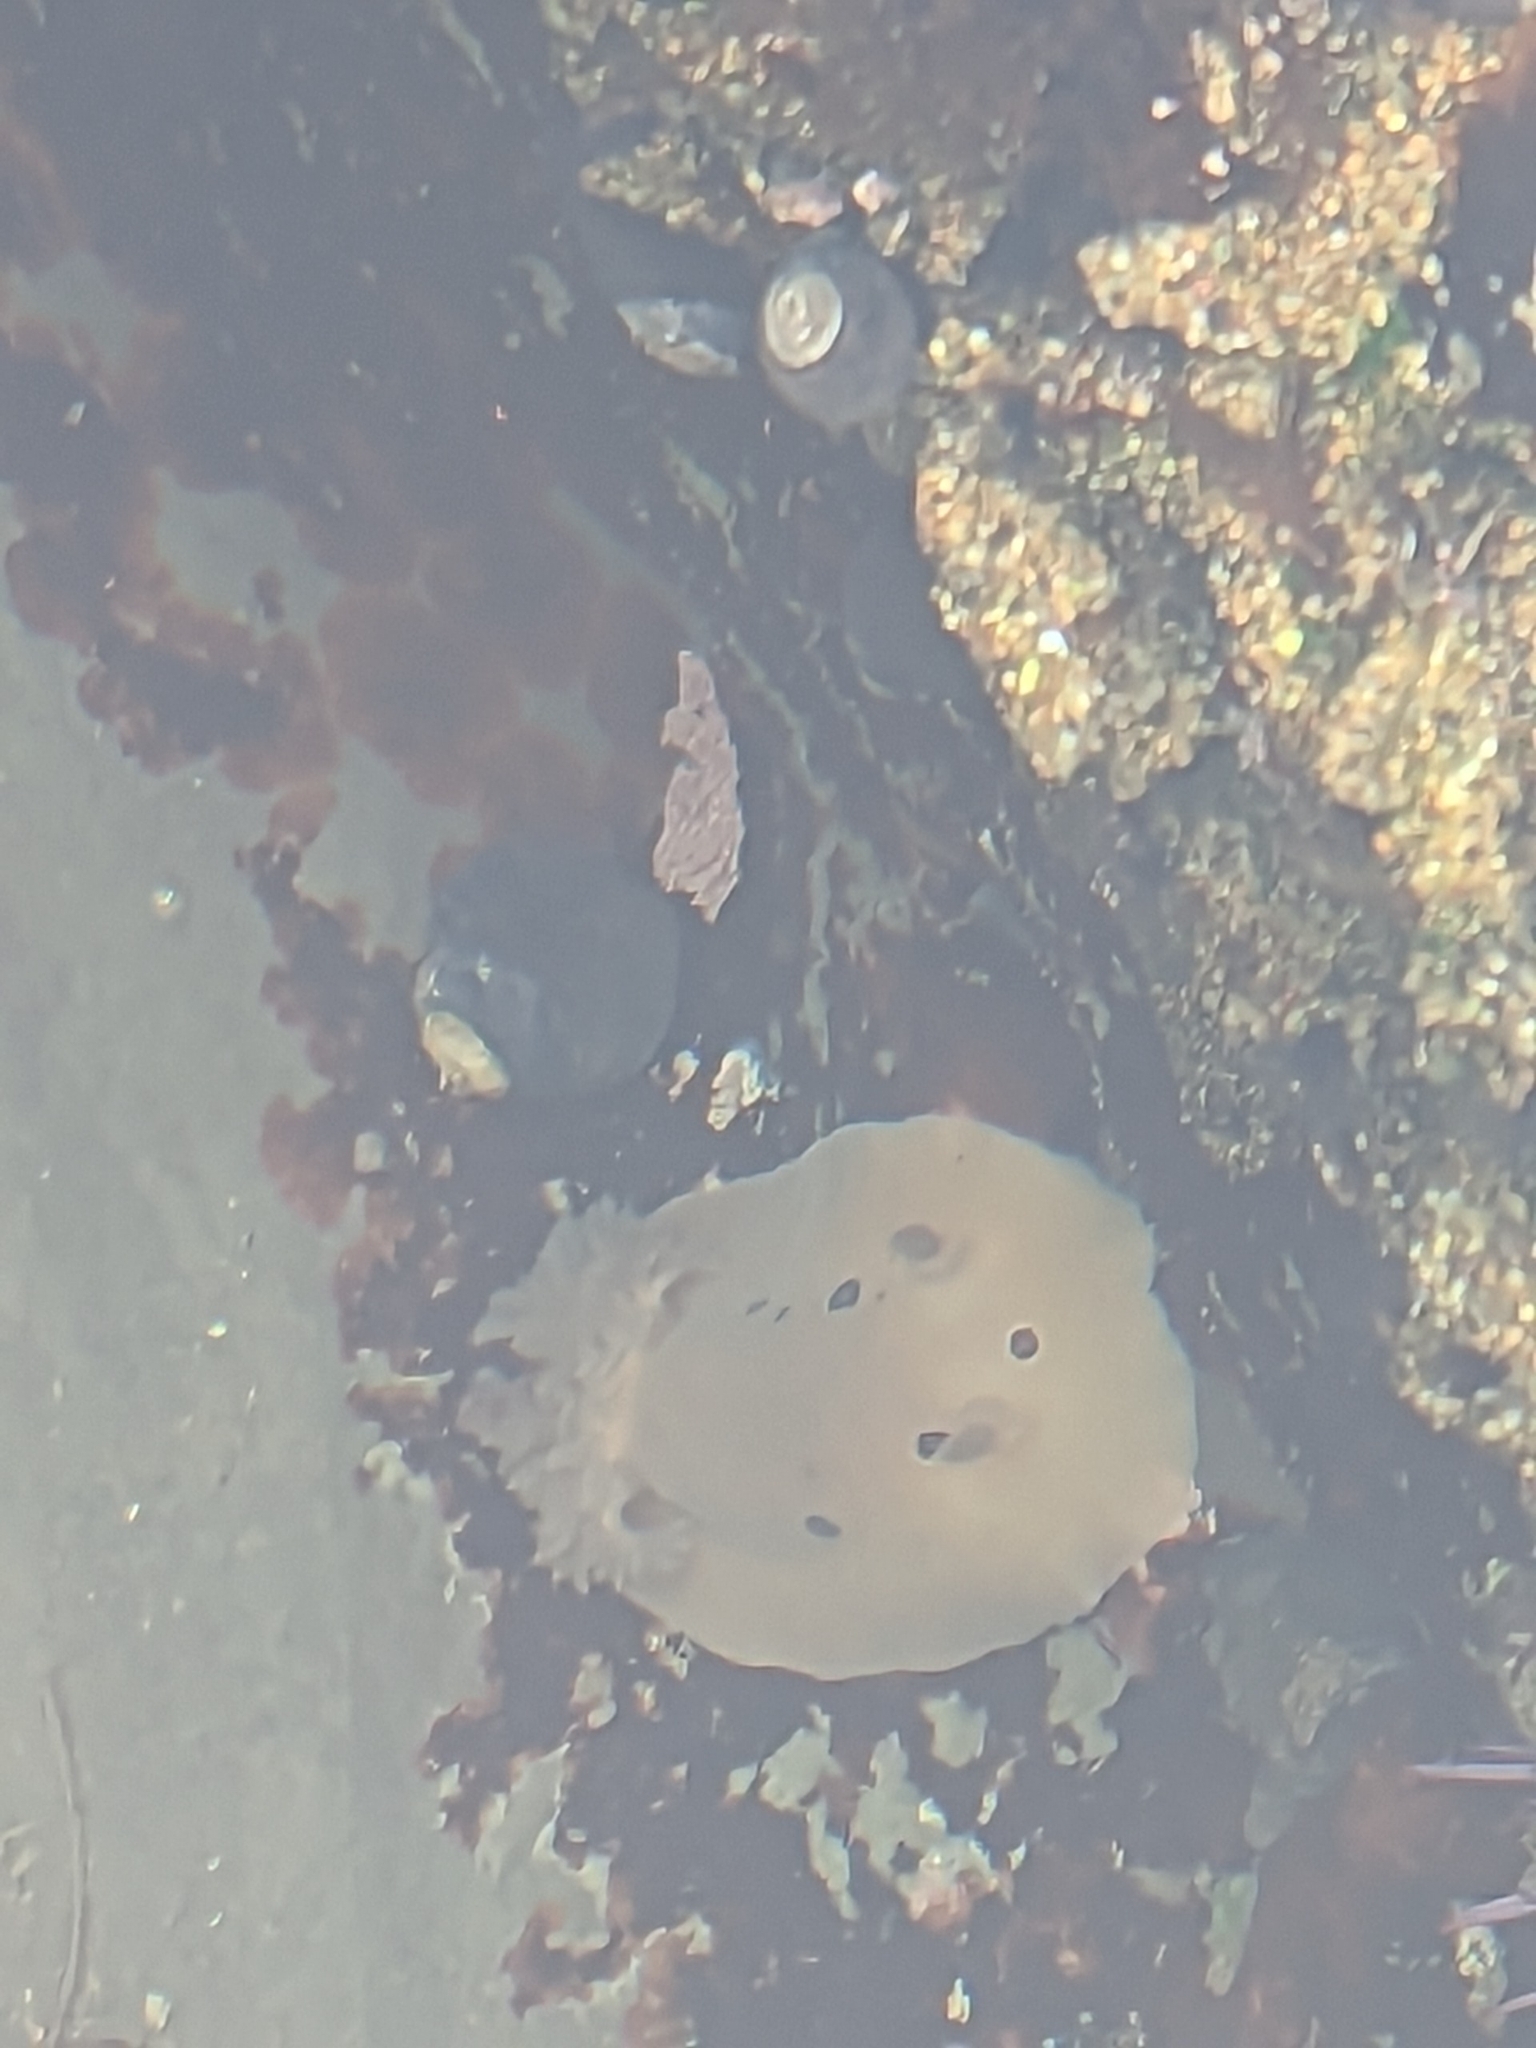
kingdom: Animalia
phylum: Mollusca
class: Gastropoda
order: Nudibranchia
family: Discodorididae
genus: Diaulula
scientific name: Diaulula sandiegensis
